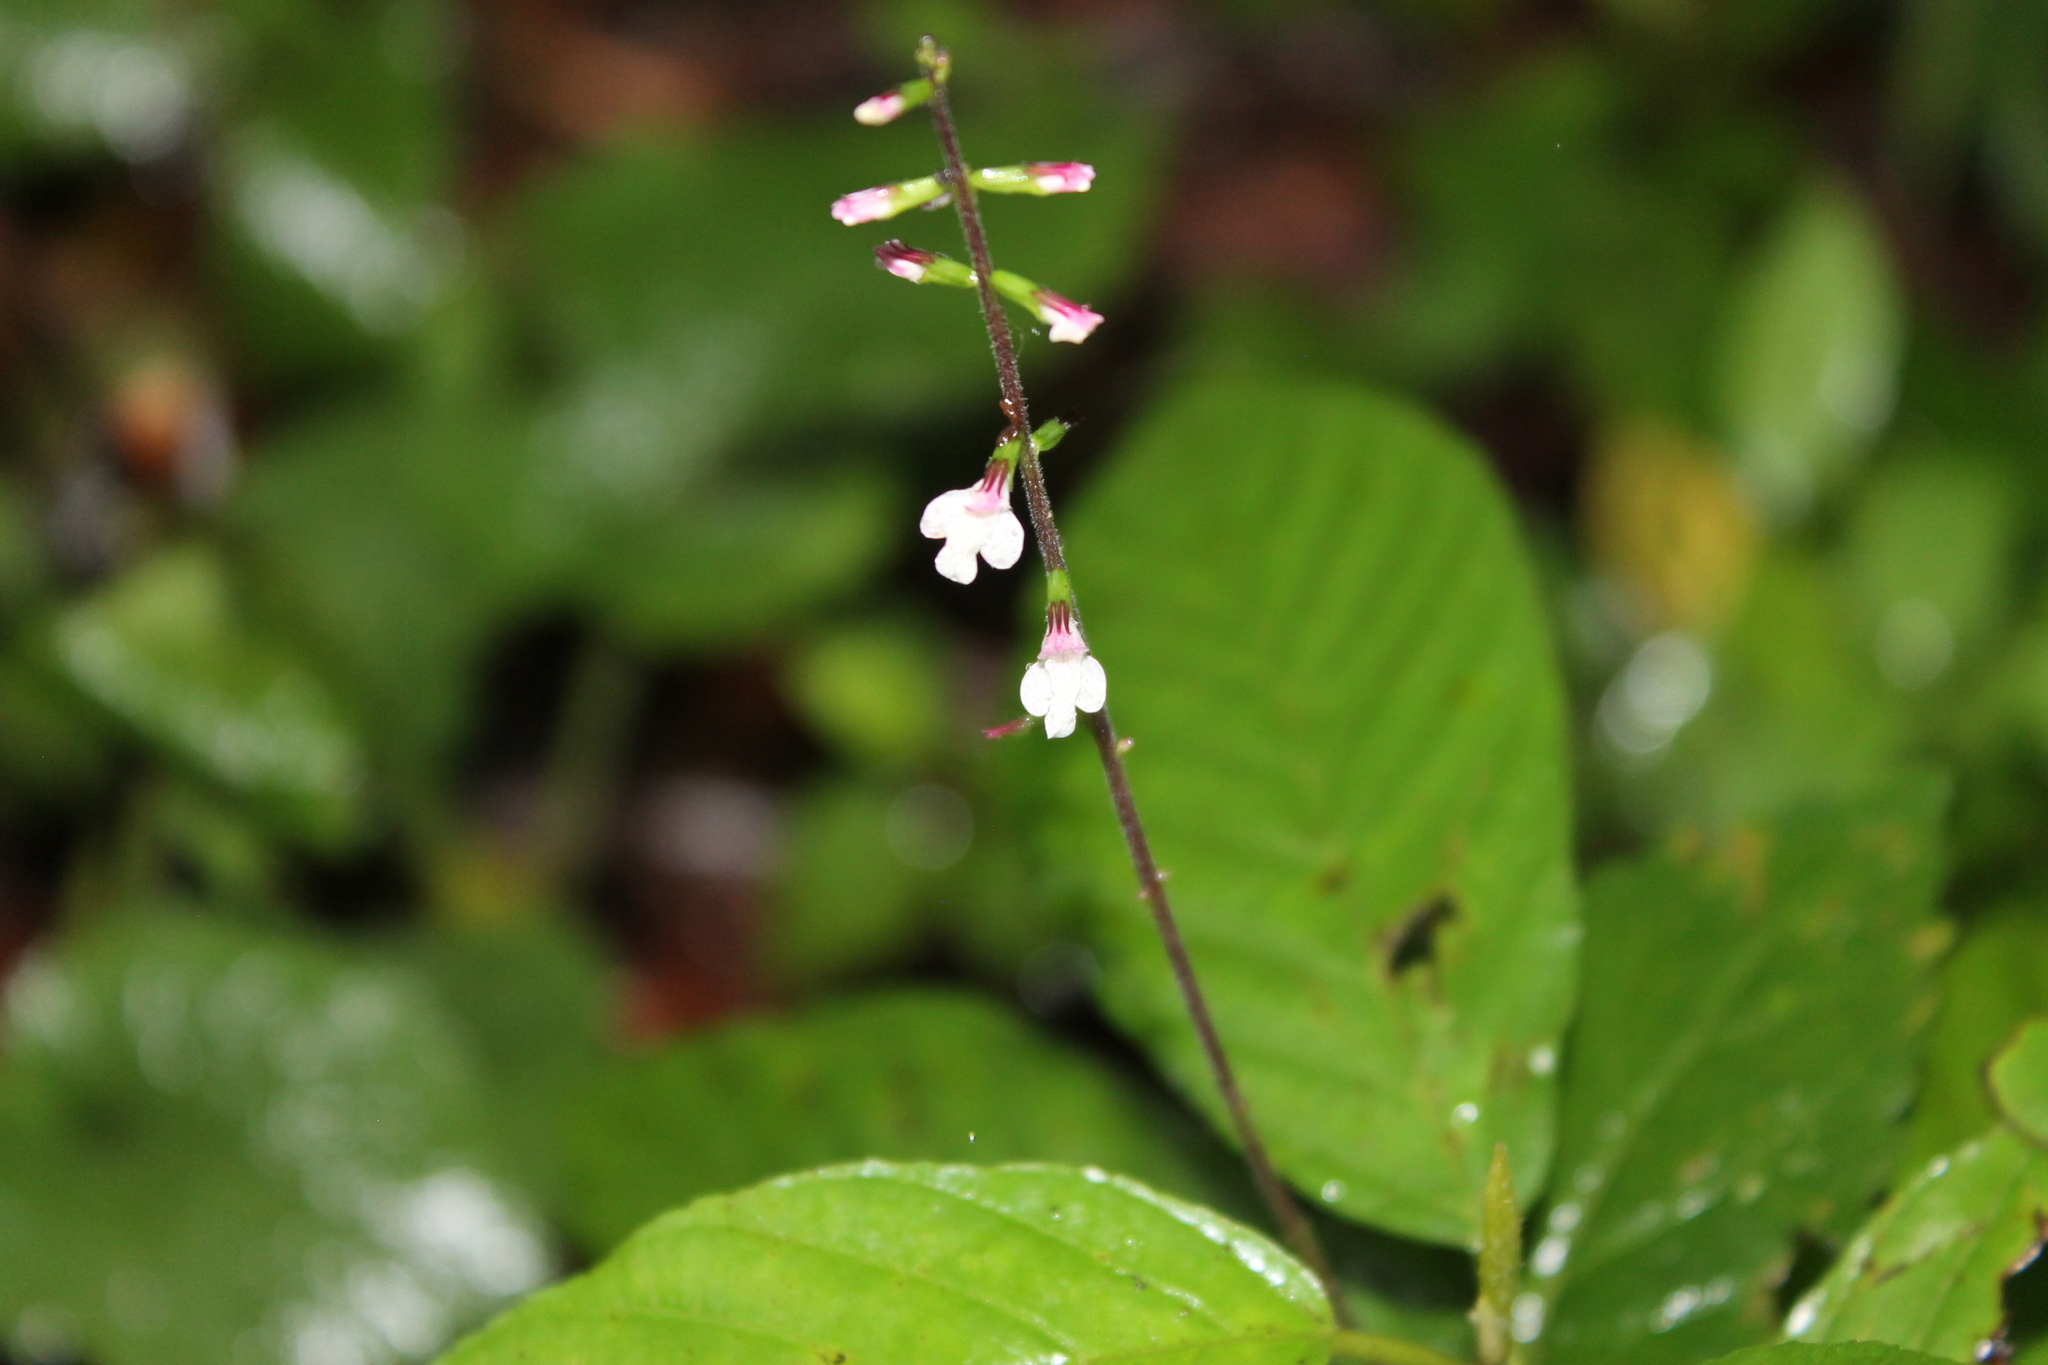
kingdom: Plantae
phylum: Tracheophyta
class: Magnoliopsida
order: Lamiales
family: Phrymaceae
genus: Phryma
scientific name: Phryma leptostachya
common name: American lopseed
